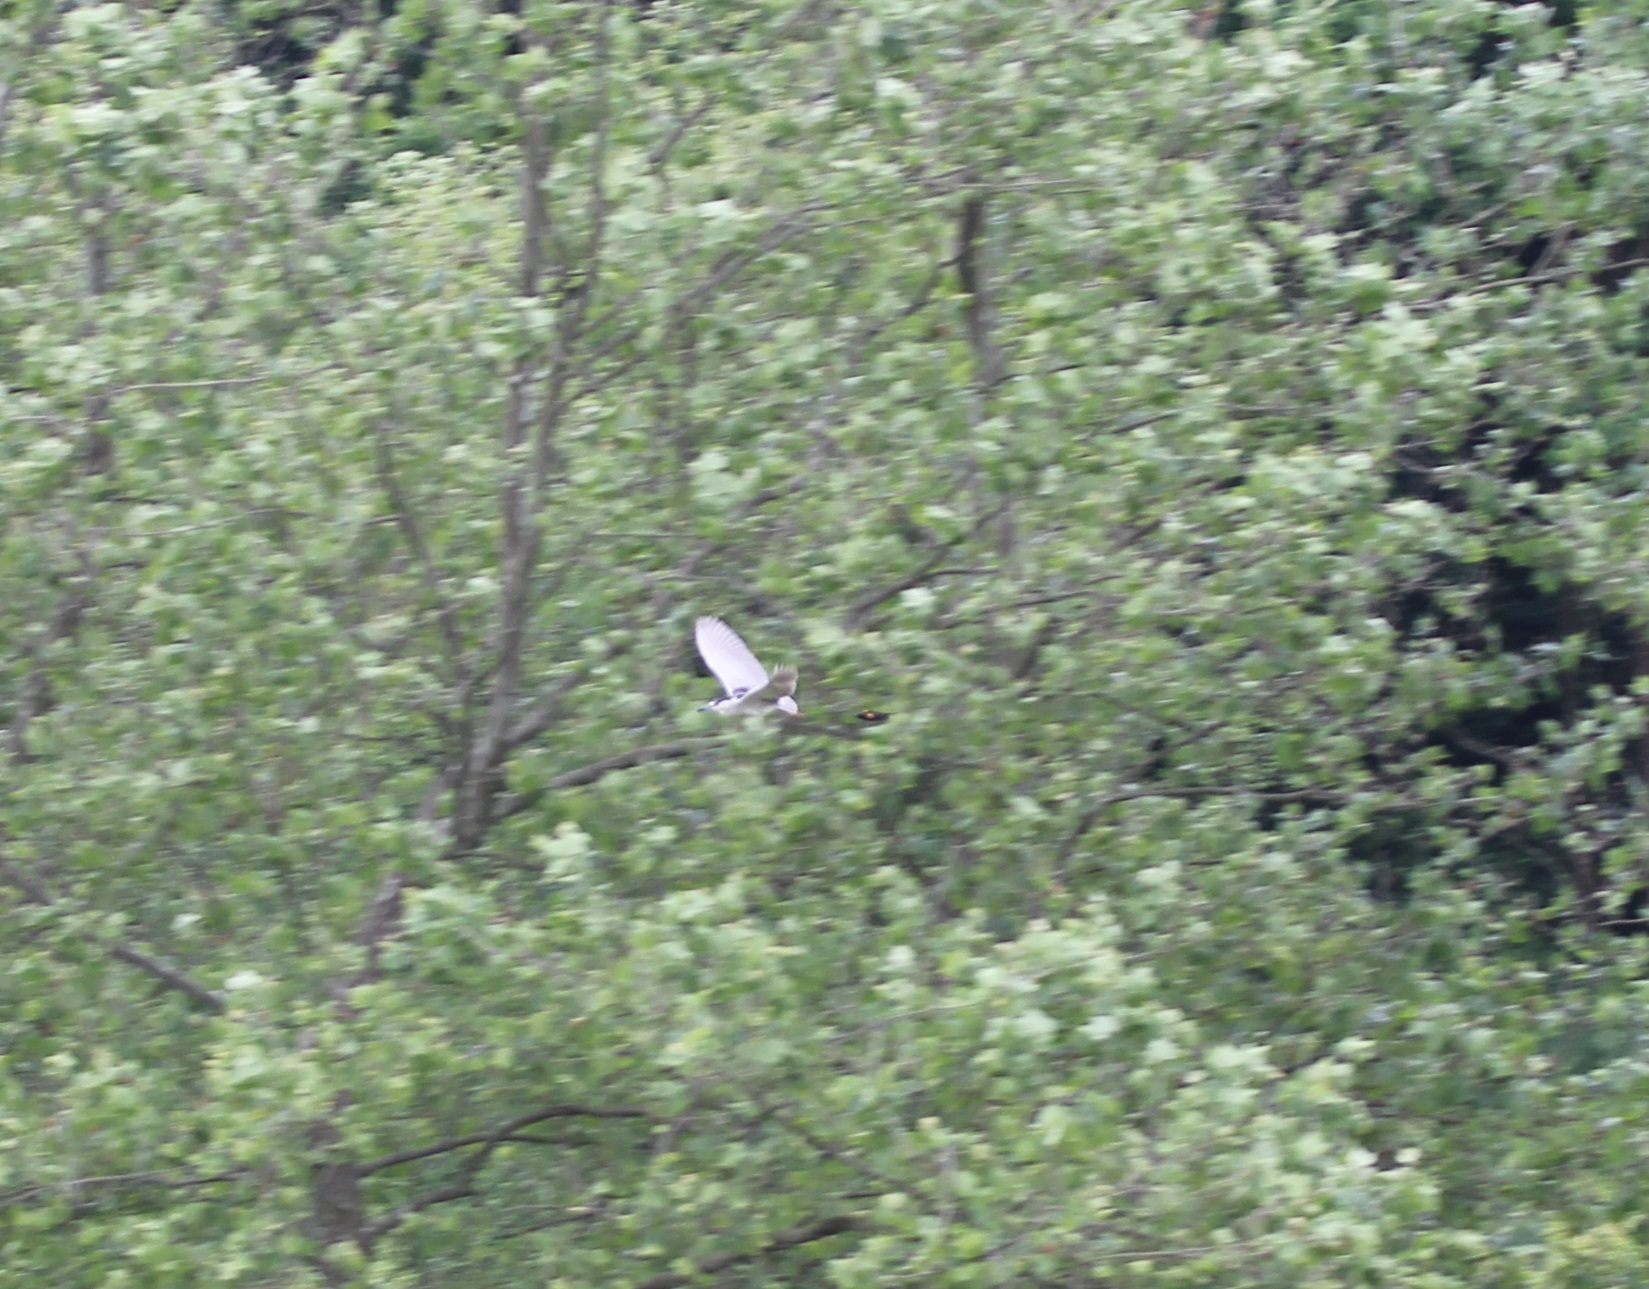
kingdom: Animalia
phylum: Chordata
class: Aves
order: Pelecaniformes
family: Ardeidae
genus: Nycticorax
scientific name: Nycticorax nycticorax
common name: Black-crowned night heron
